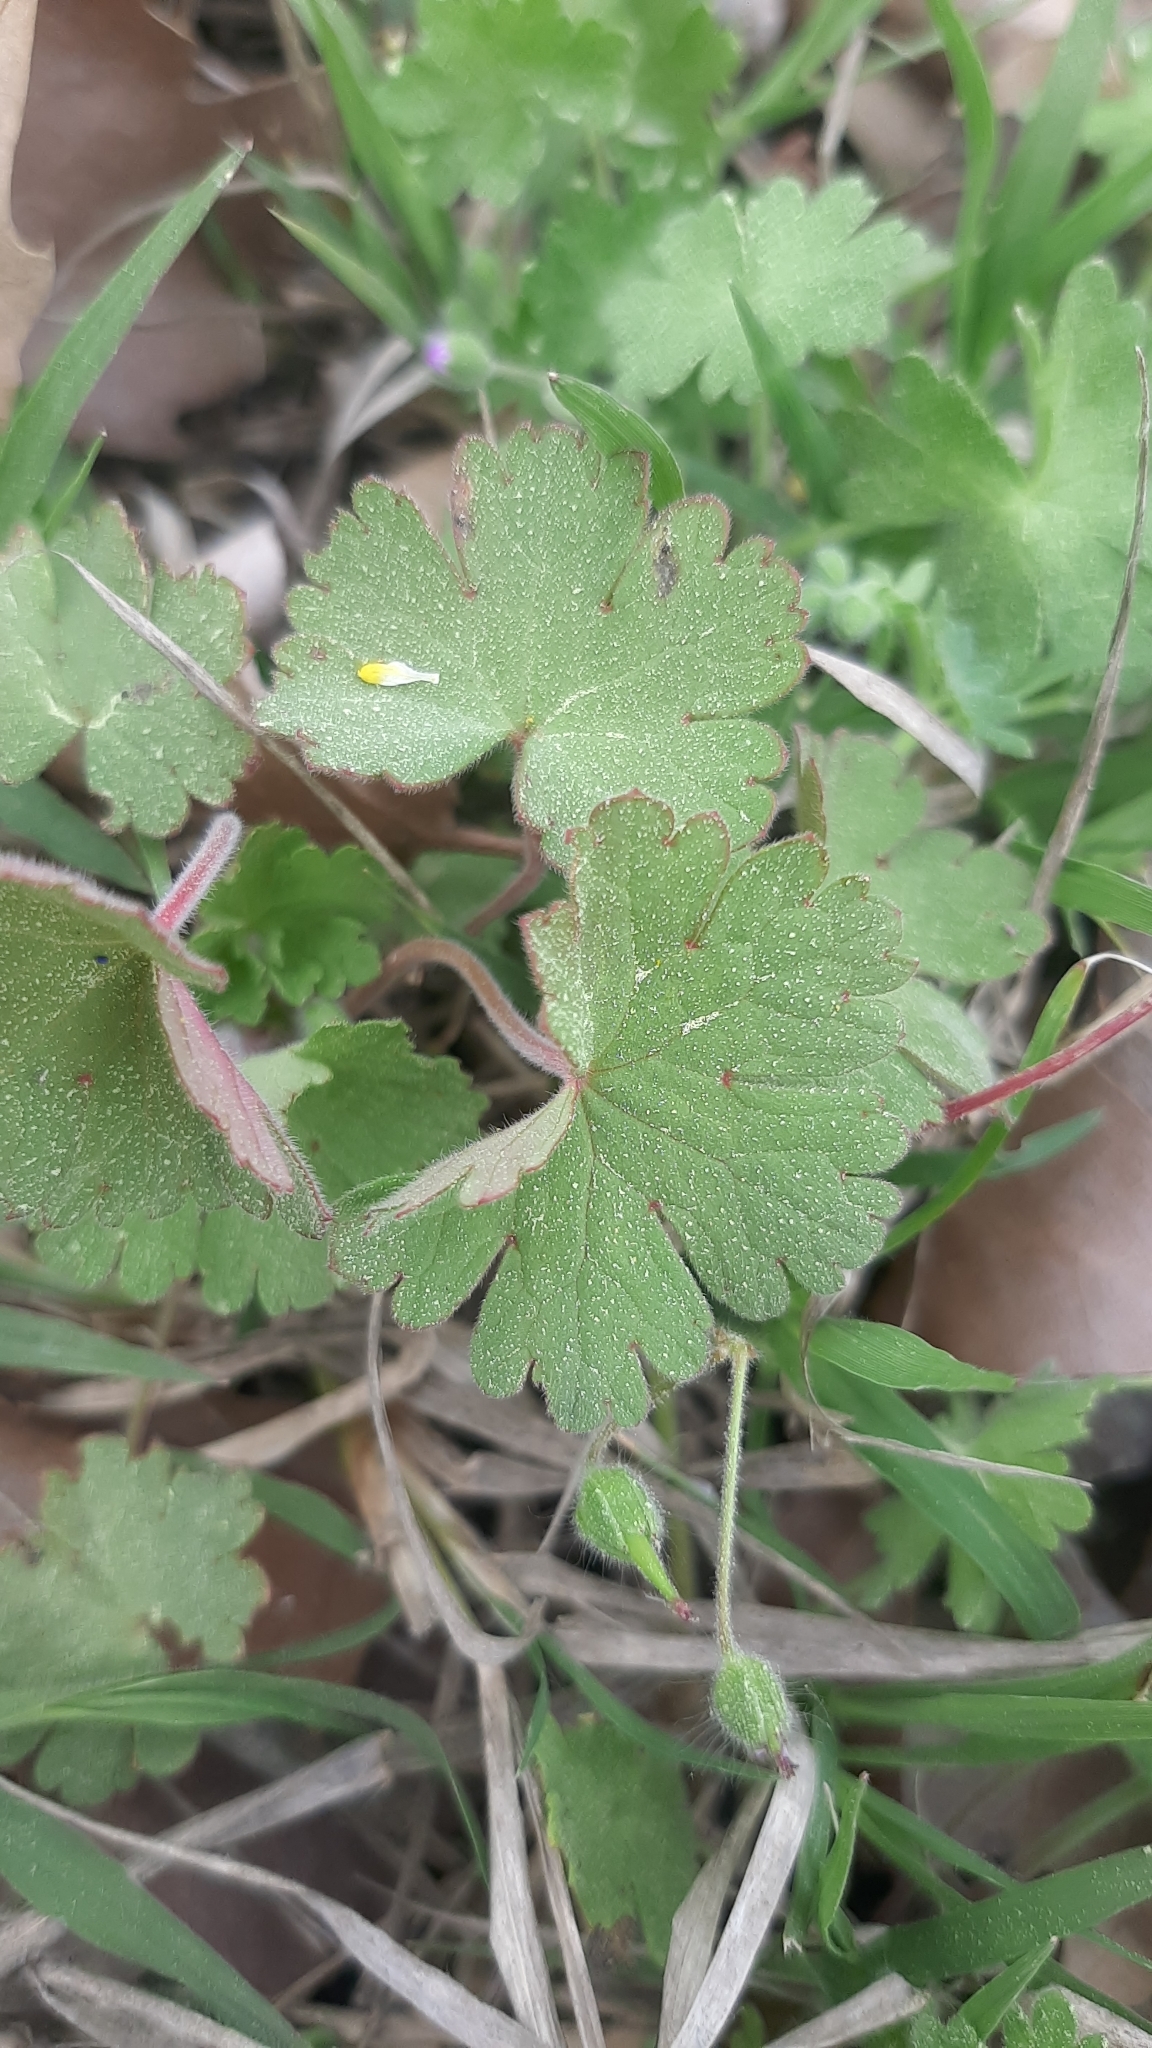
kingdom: Plantae
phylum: Tracheophyta
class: Magnoliopsida
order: Geraniales
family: Geraniaceae
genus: Geranium
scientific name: Geranium rotundifolium
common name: Round-leaved crane's-bill
